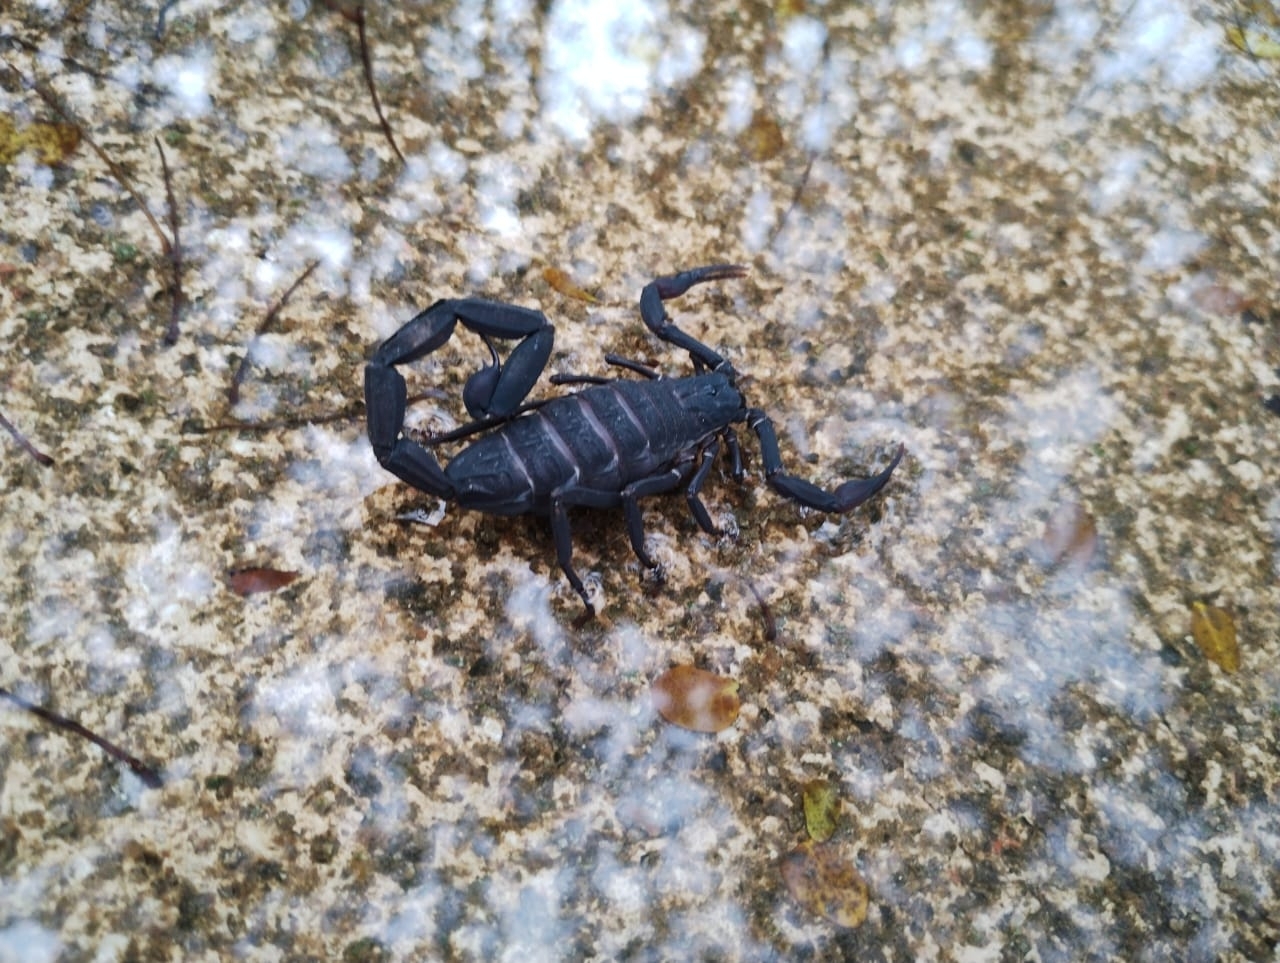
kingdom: Animalia
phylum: Arthropoda
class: Arachnida
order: Scorpiones
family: Buthidae
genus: Centruroides
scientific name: Centruroides gracilis
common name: Scorpions
